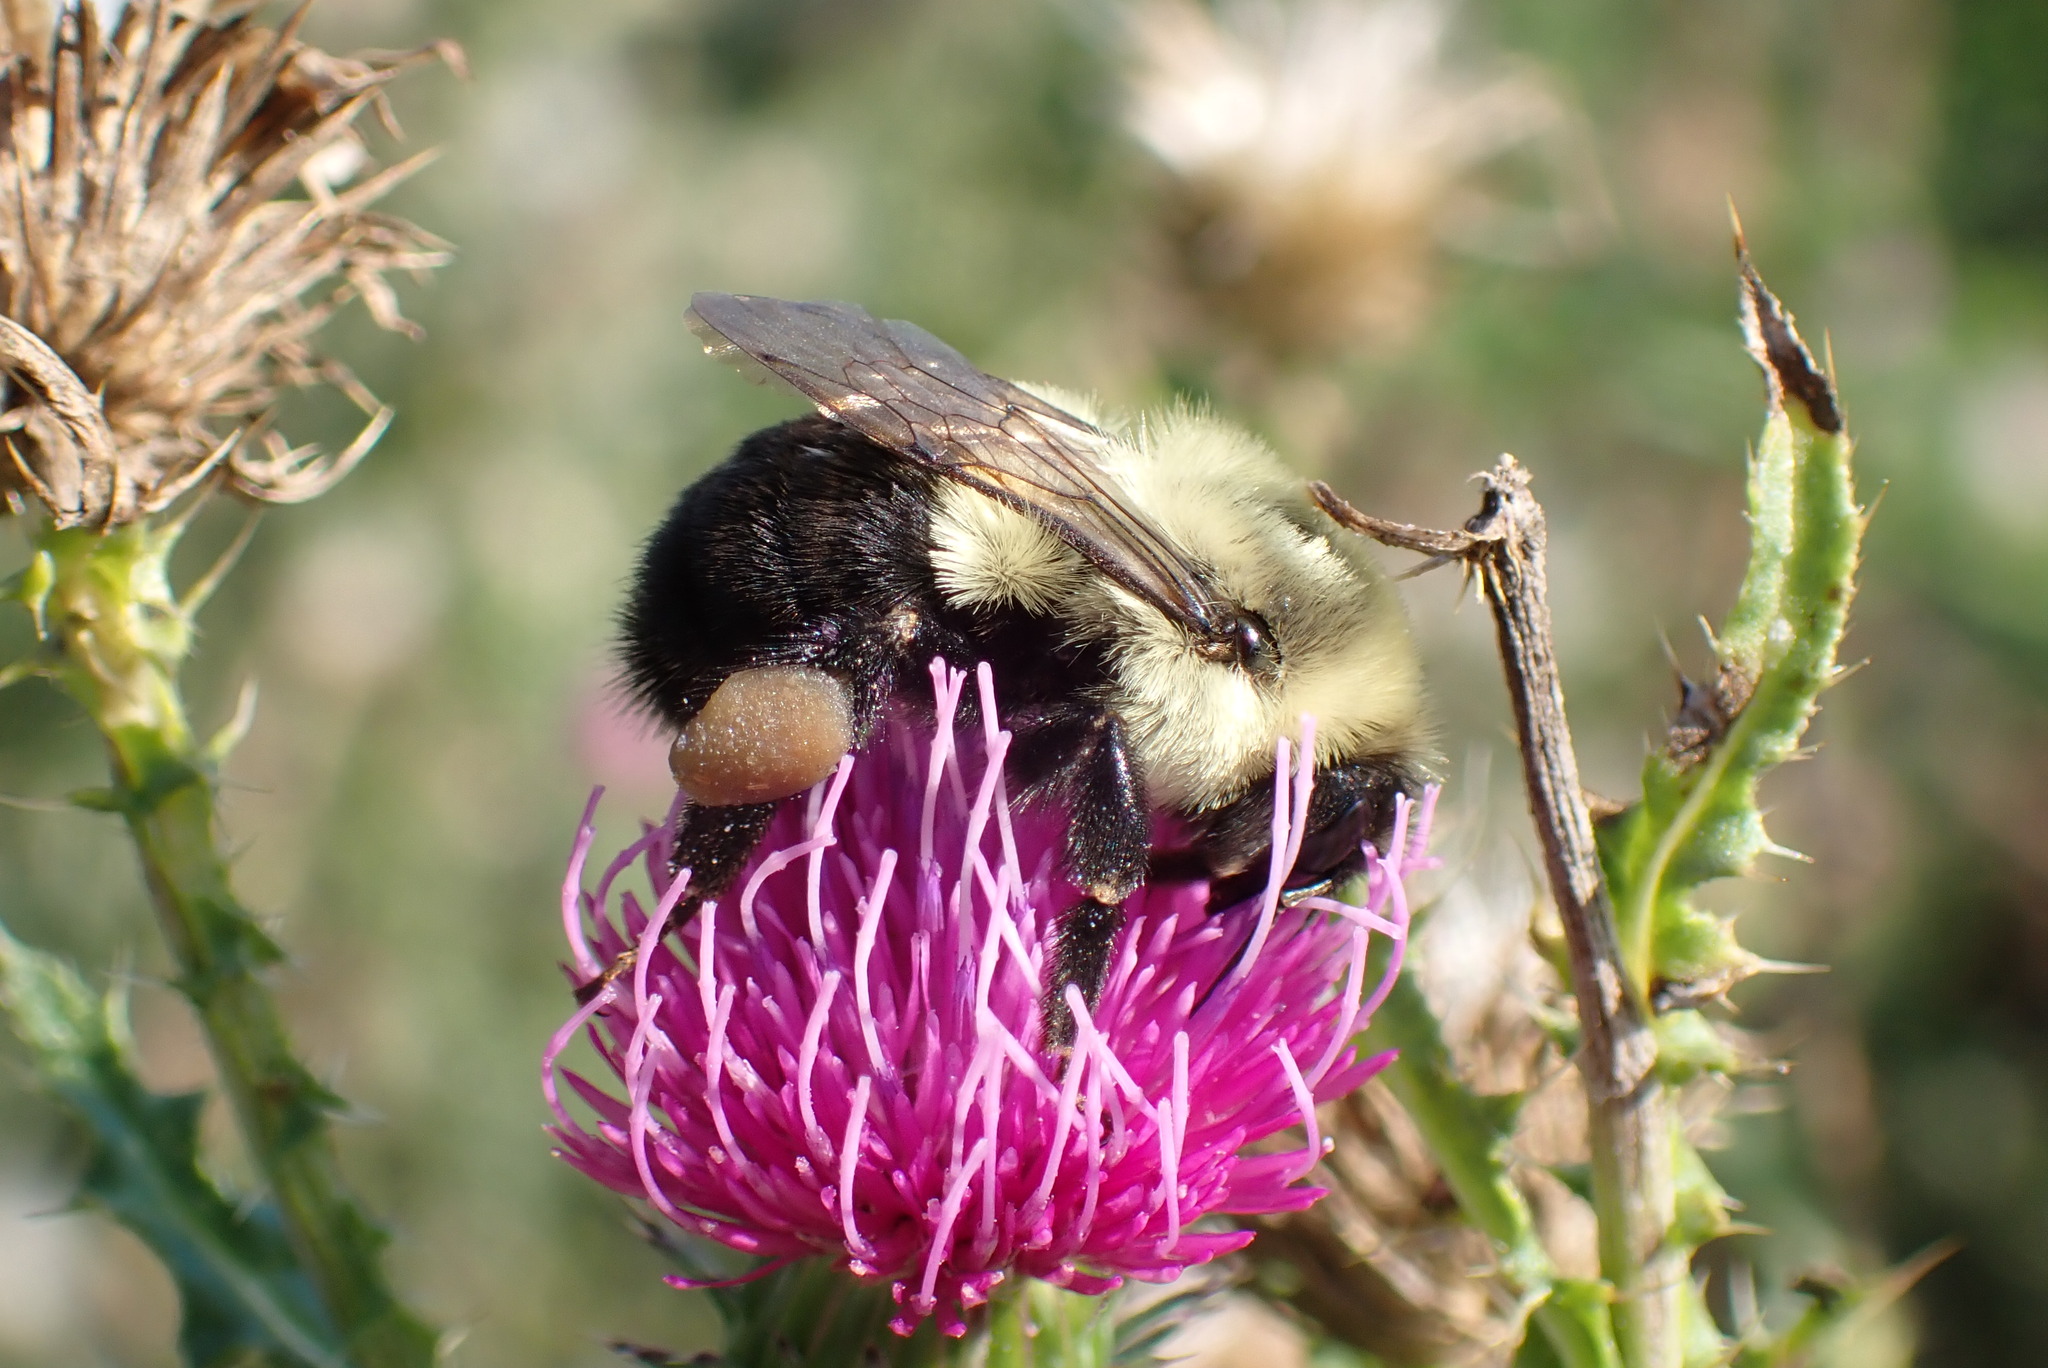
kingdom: Animalia
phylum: Arthropoda
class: Insecta
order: Hymenoptera
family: Apidae
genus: Bombus
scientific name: Bombus impatiens
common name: Common eastern bumble bee
